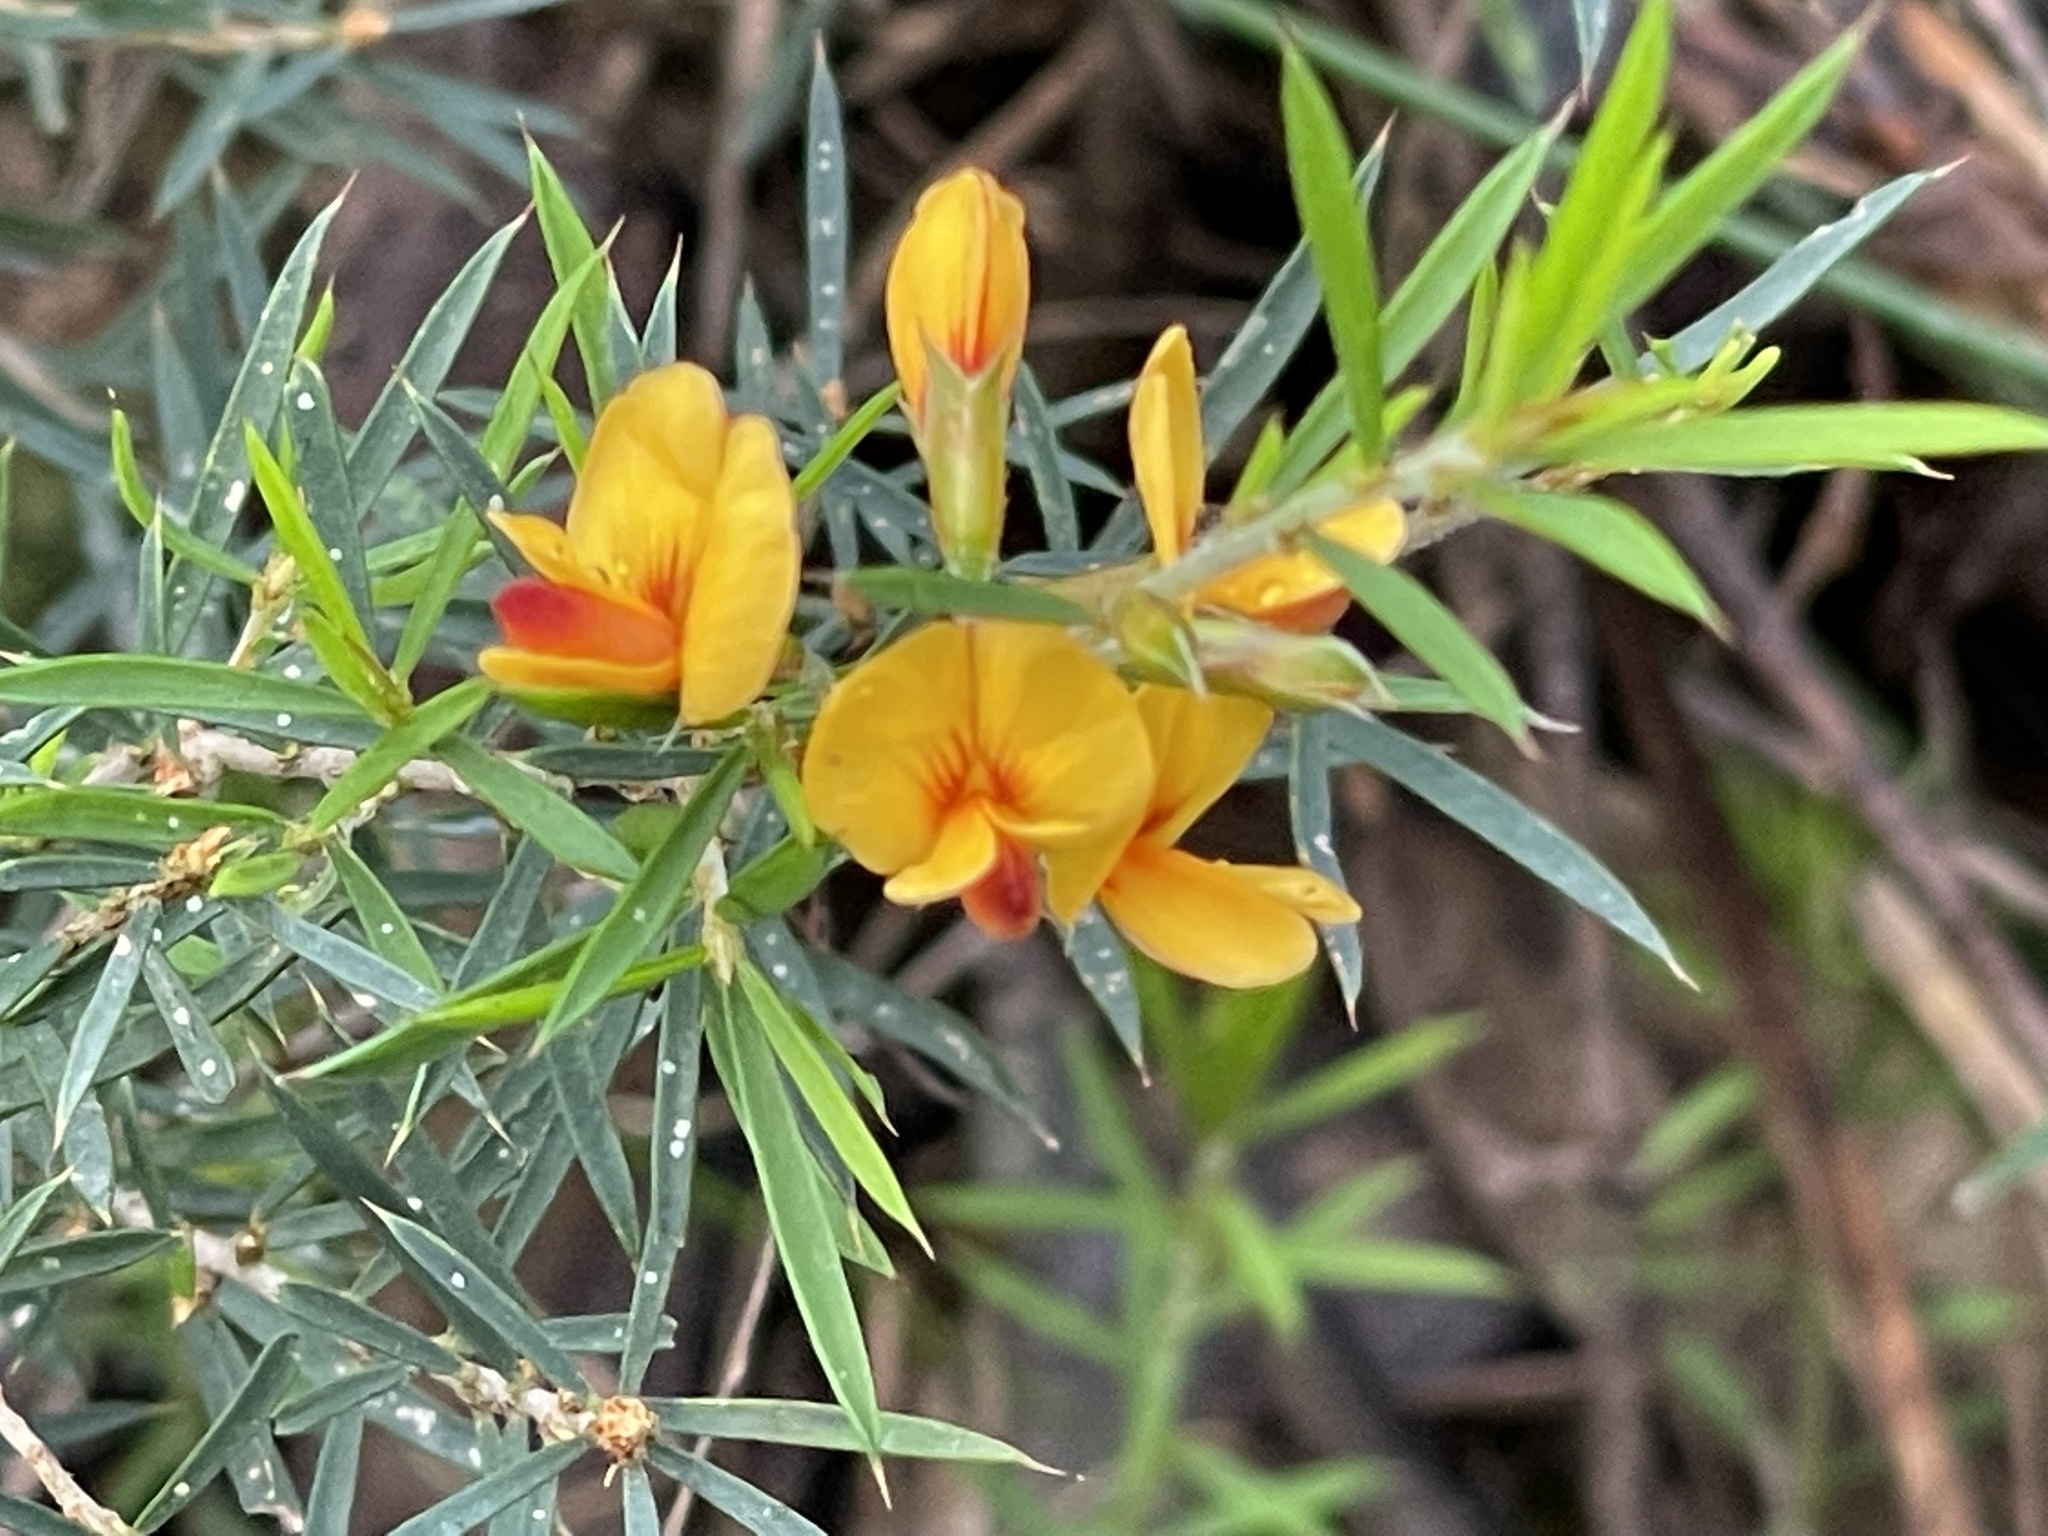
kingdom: Plantae
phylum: Tracheophyta
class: Magnoliopsida
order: Fabales
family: Fabaceae
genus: Pultenaea
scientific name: Pultenaea juniperina
